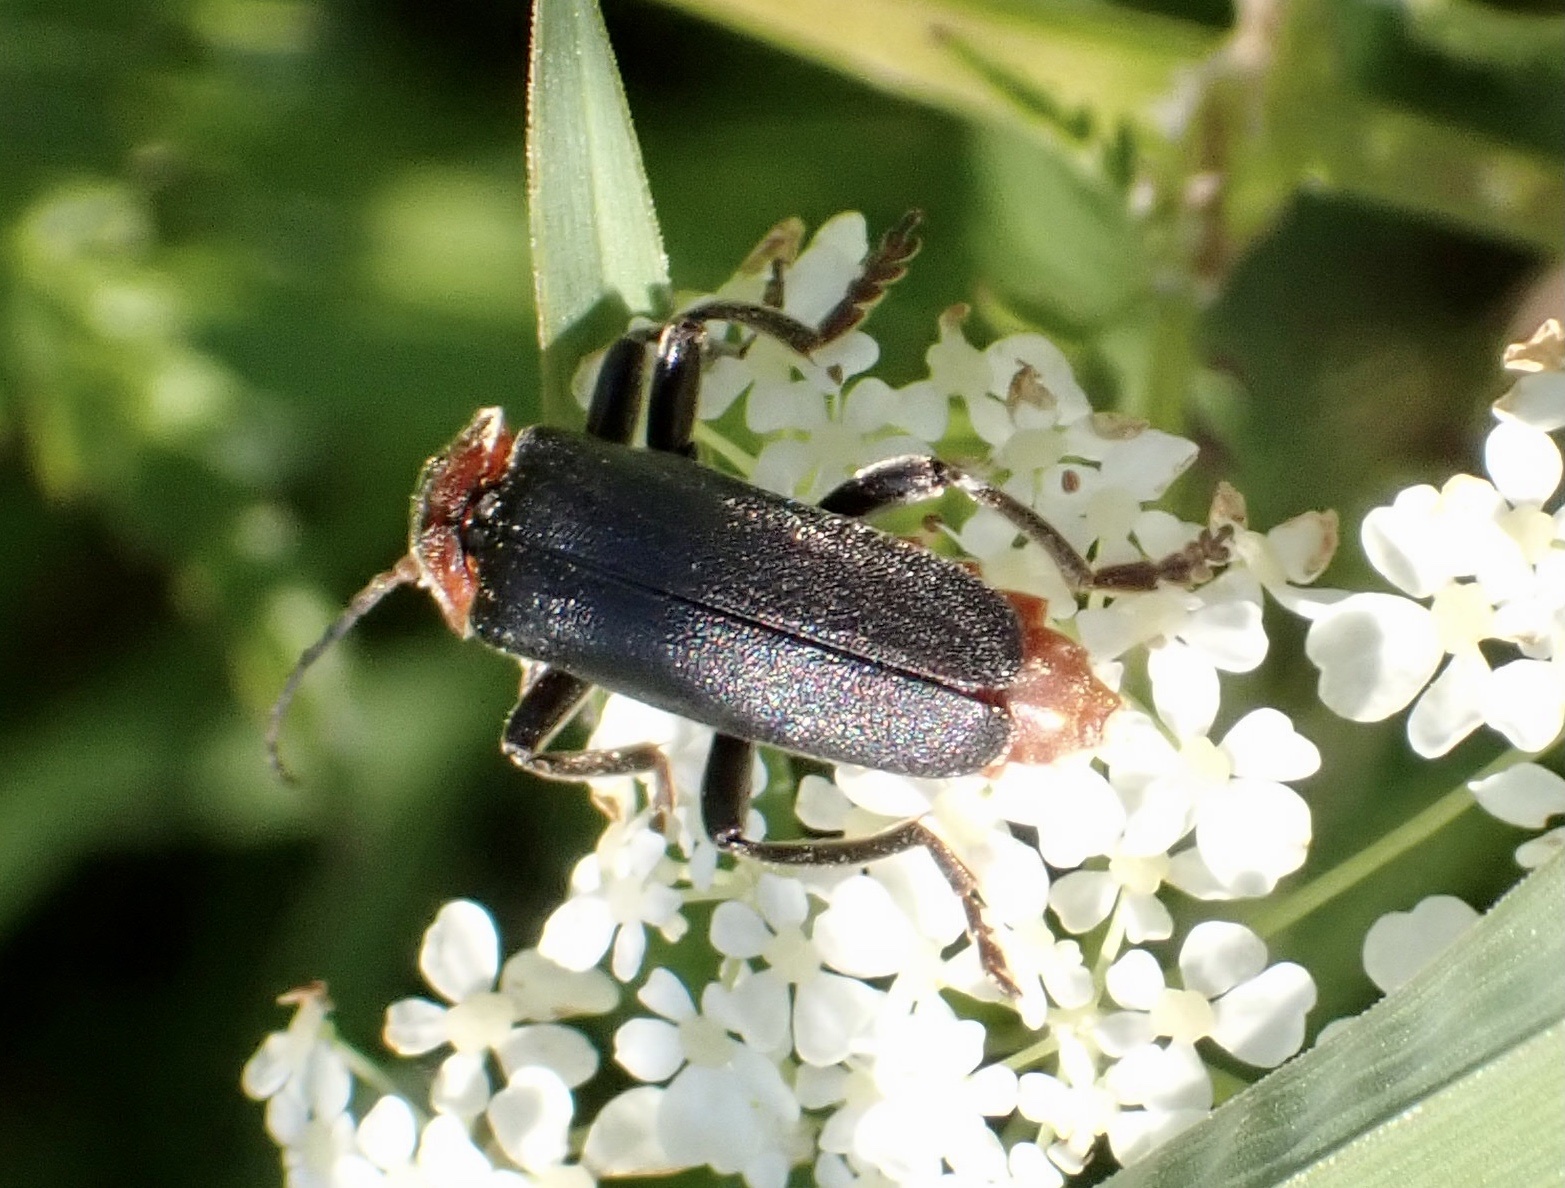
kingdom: Animalia
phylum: Arthropoda
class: Insecta
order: Coleoptera
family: Cantharidae
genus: Cantharis
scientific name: Cantharis fusca
